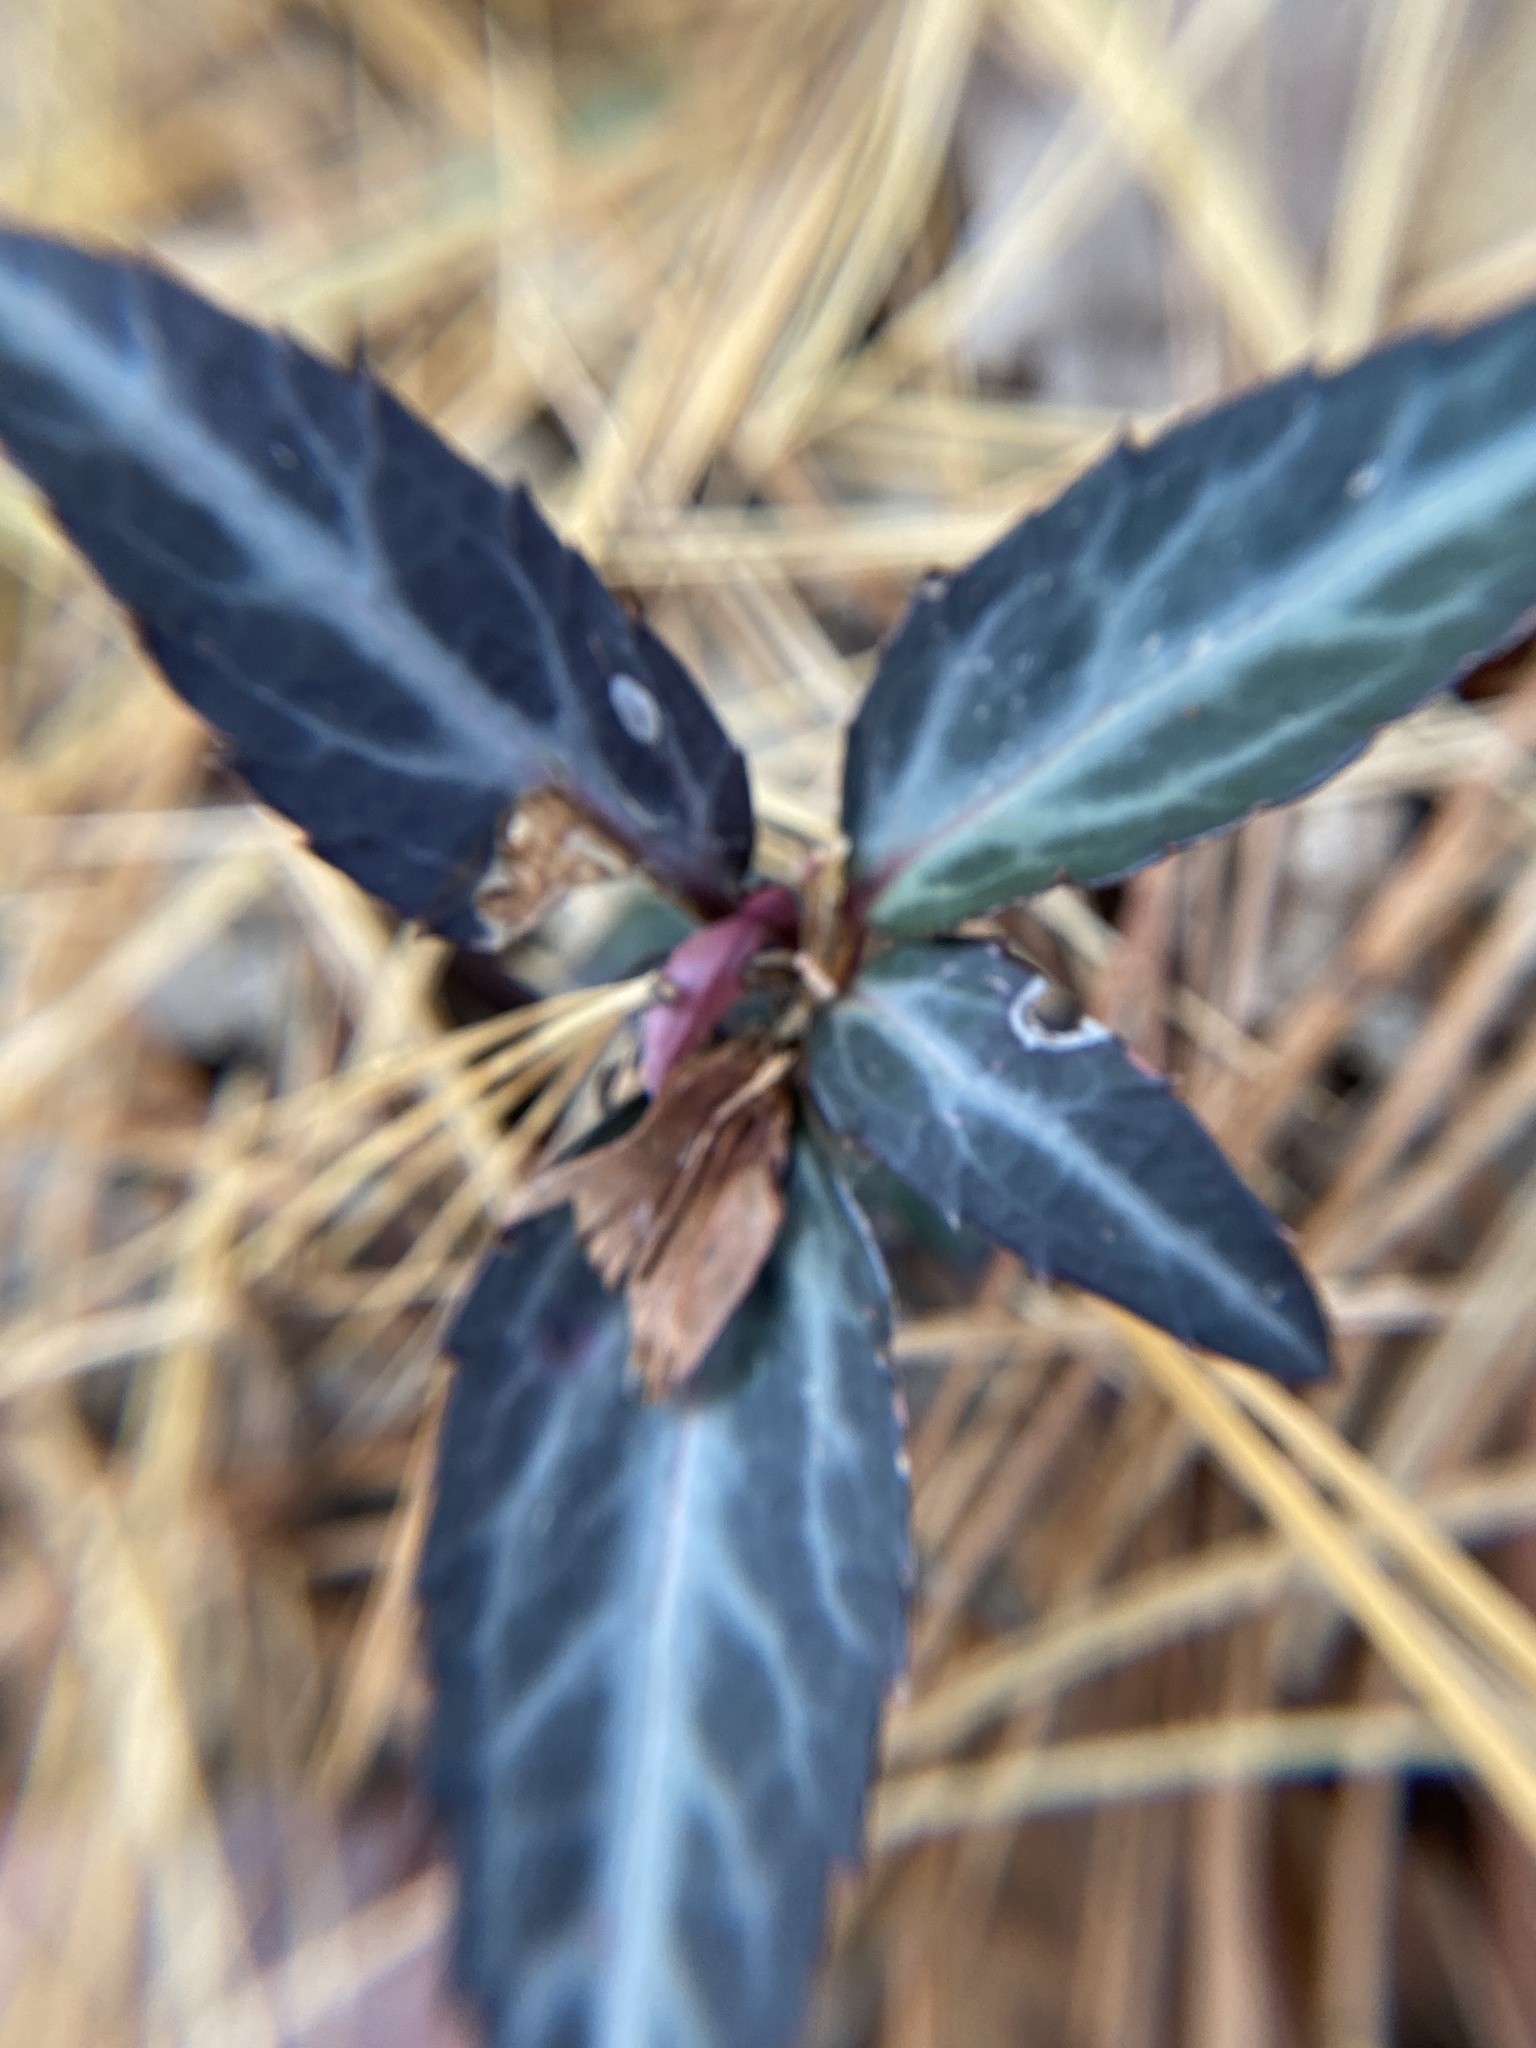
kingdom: Plantae
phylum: Tracheophyta
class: Magnoliopsida
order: Ericales
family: Ericaceae
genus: Chimaphila
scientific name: Chimaphila maculata
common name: Spotted pipsissewa
